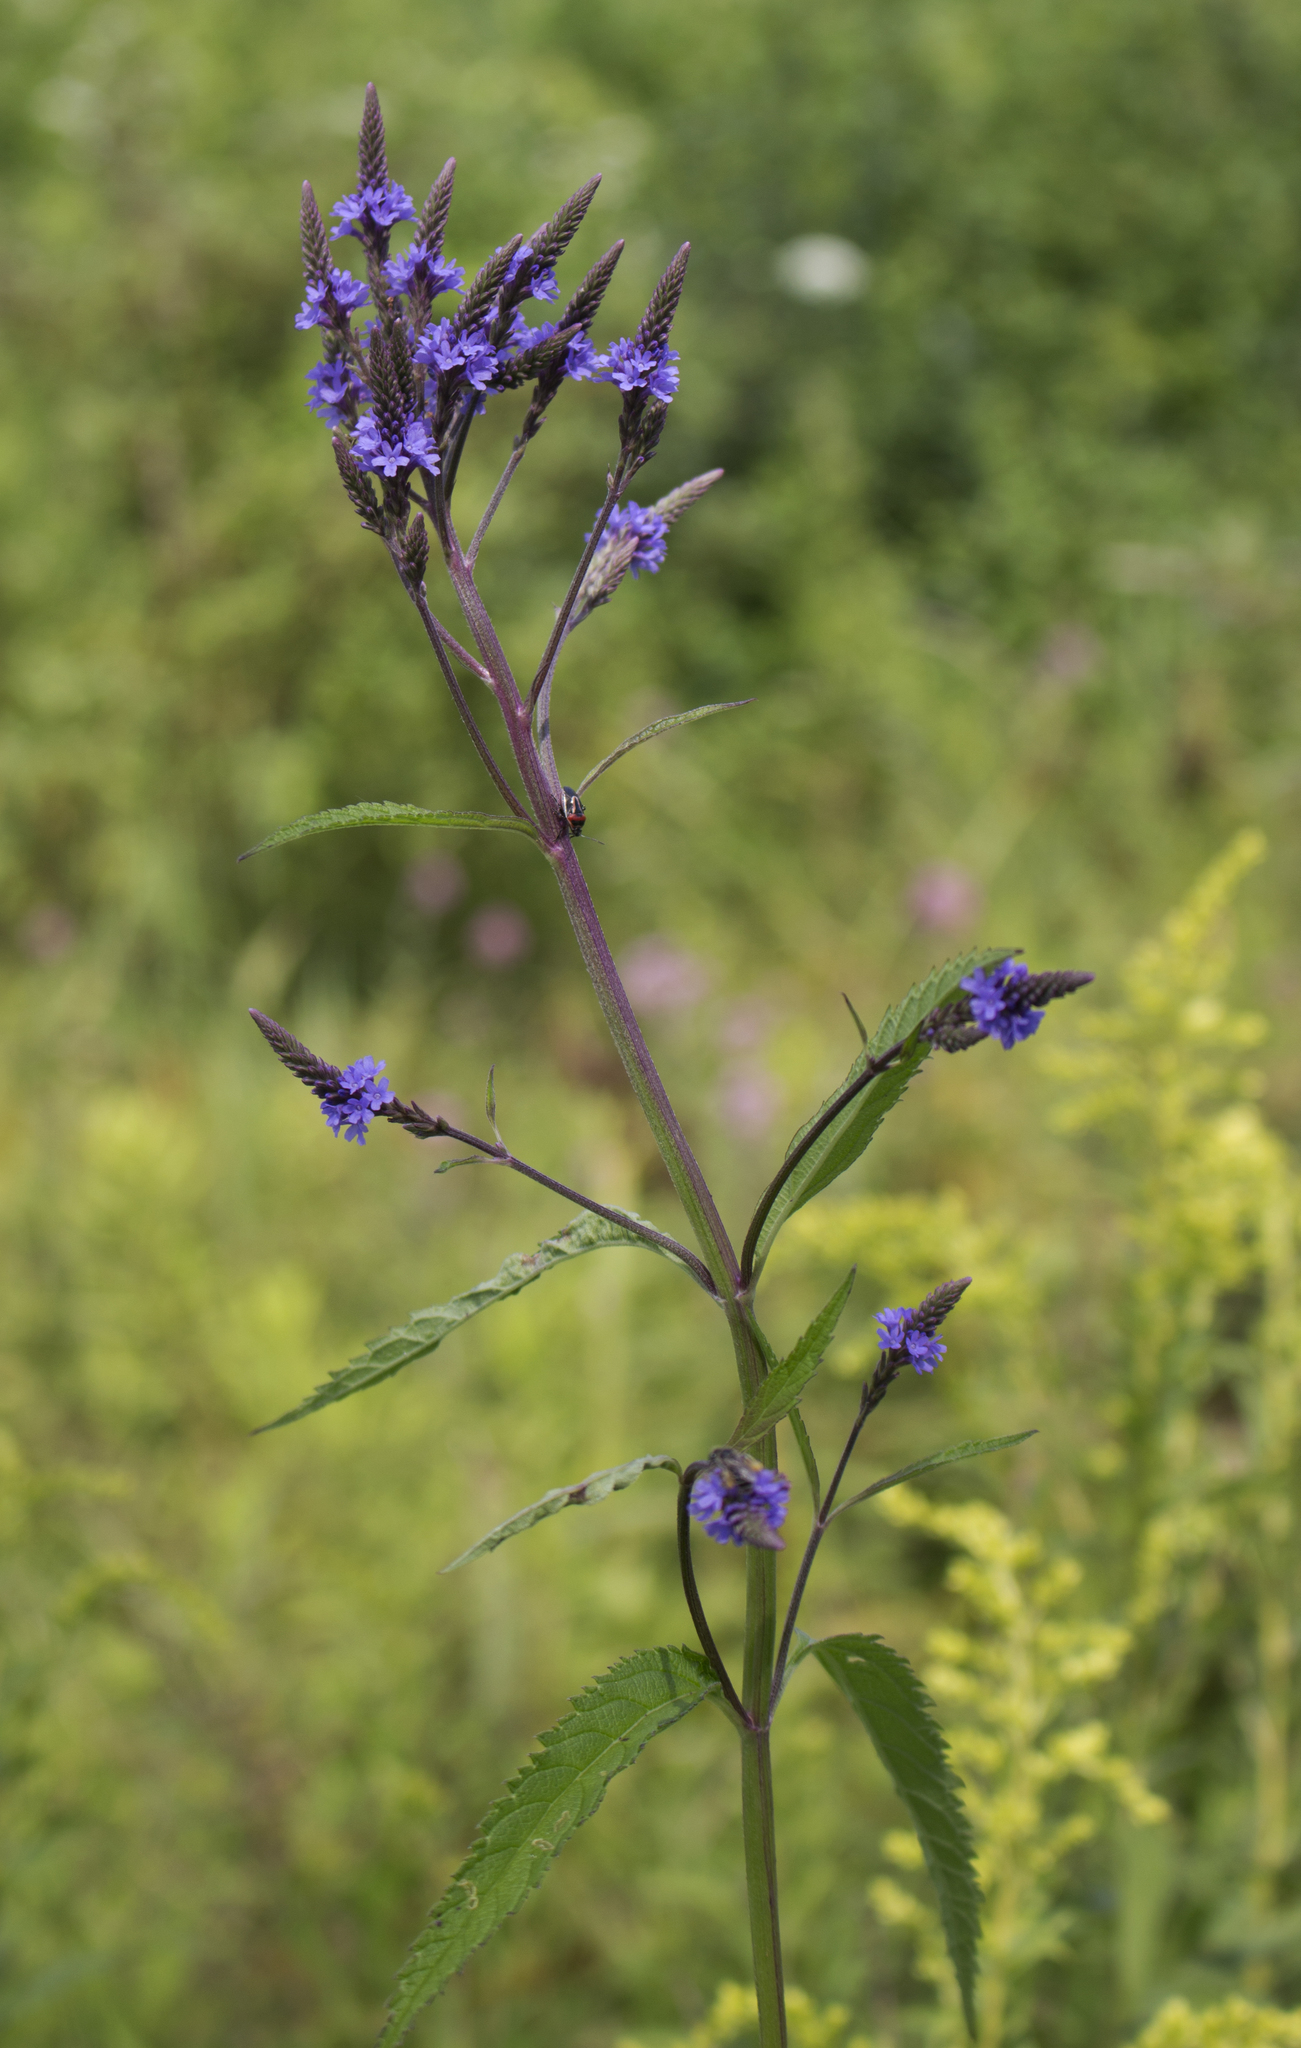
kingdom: Plantae
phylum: Tracheophyta
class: Magnoliopsida
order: Lamiales
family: Verbenaceae
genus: Verbena
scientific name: Verbena hastata
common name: American blue vervain
